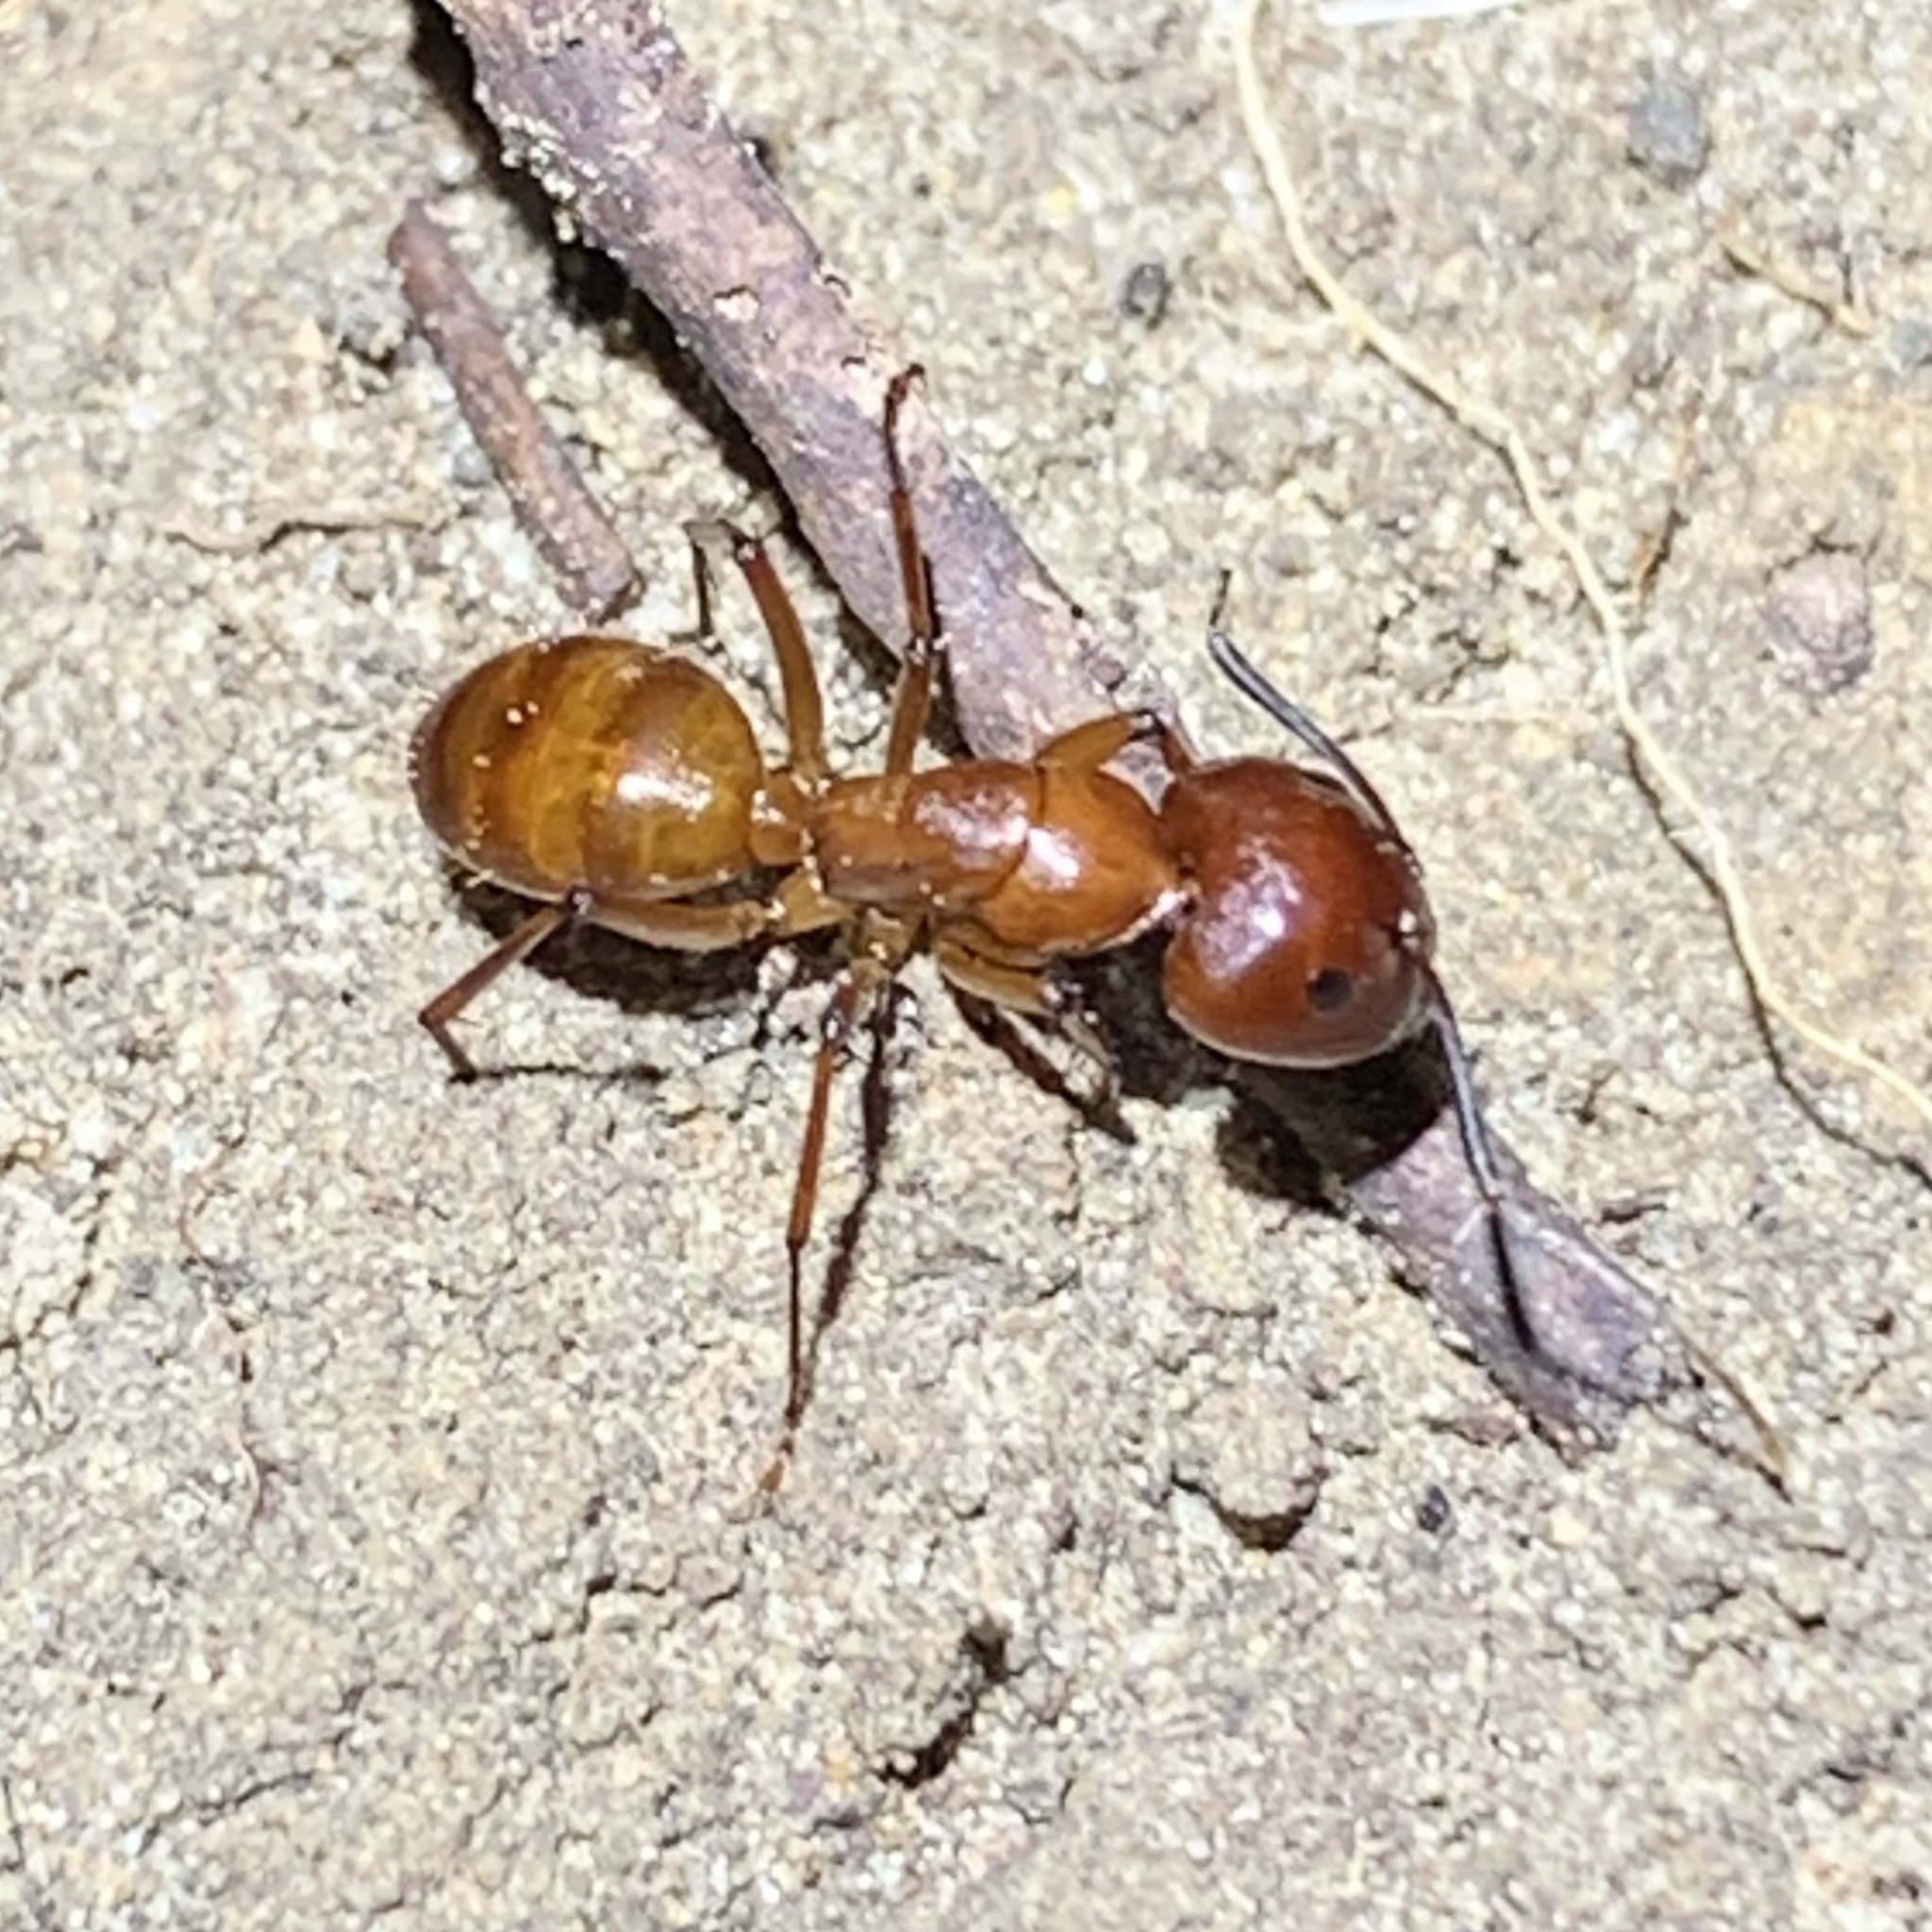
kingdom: Animalia
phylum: Arthropoda
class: Insecta
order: Hymenoptera
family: Formicidae
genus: Camponotus
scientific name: Camponotus castaneus
